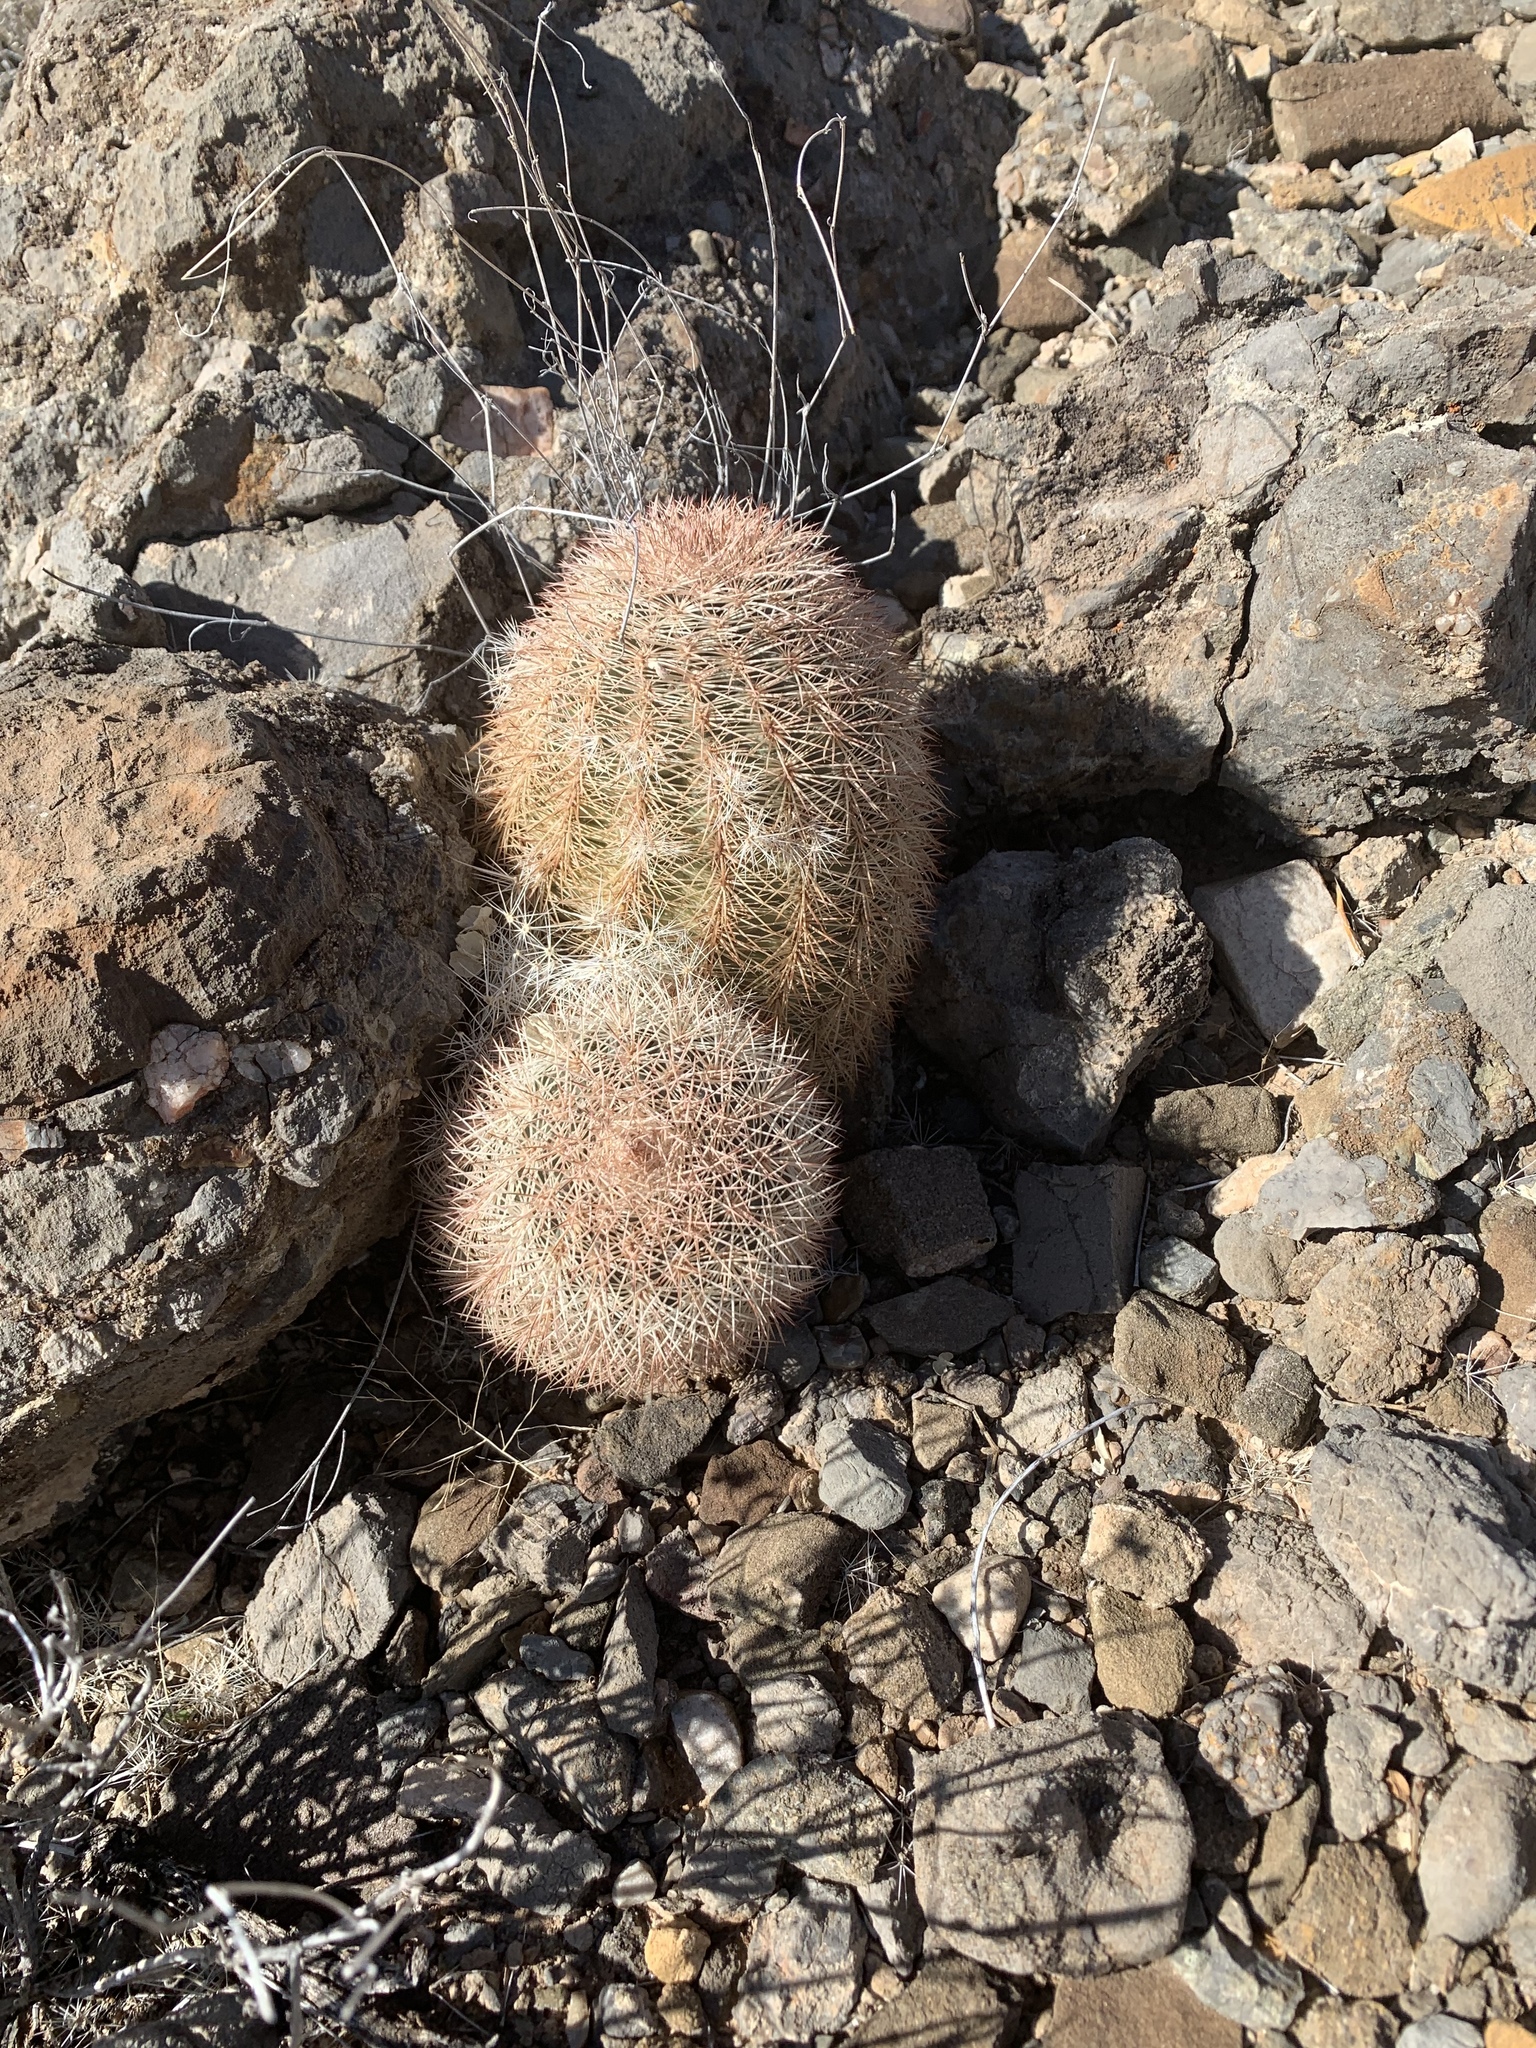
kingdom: Plantae
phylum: Tracheophyta
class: Magnoliopsida
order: Caryophyllales
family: Cactaceae
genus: Echinocereus
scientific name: Echinocereus dasyacanthus
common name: Spiny hedgehog cactus
